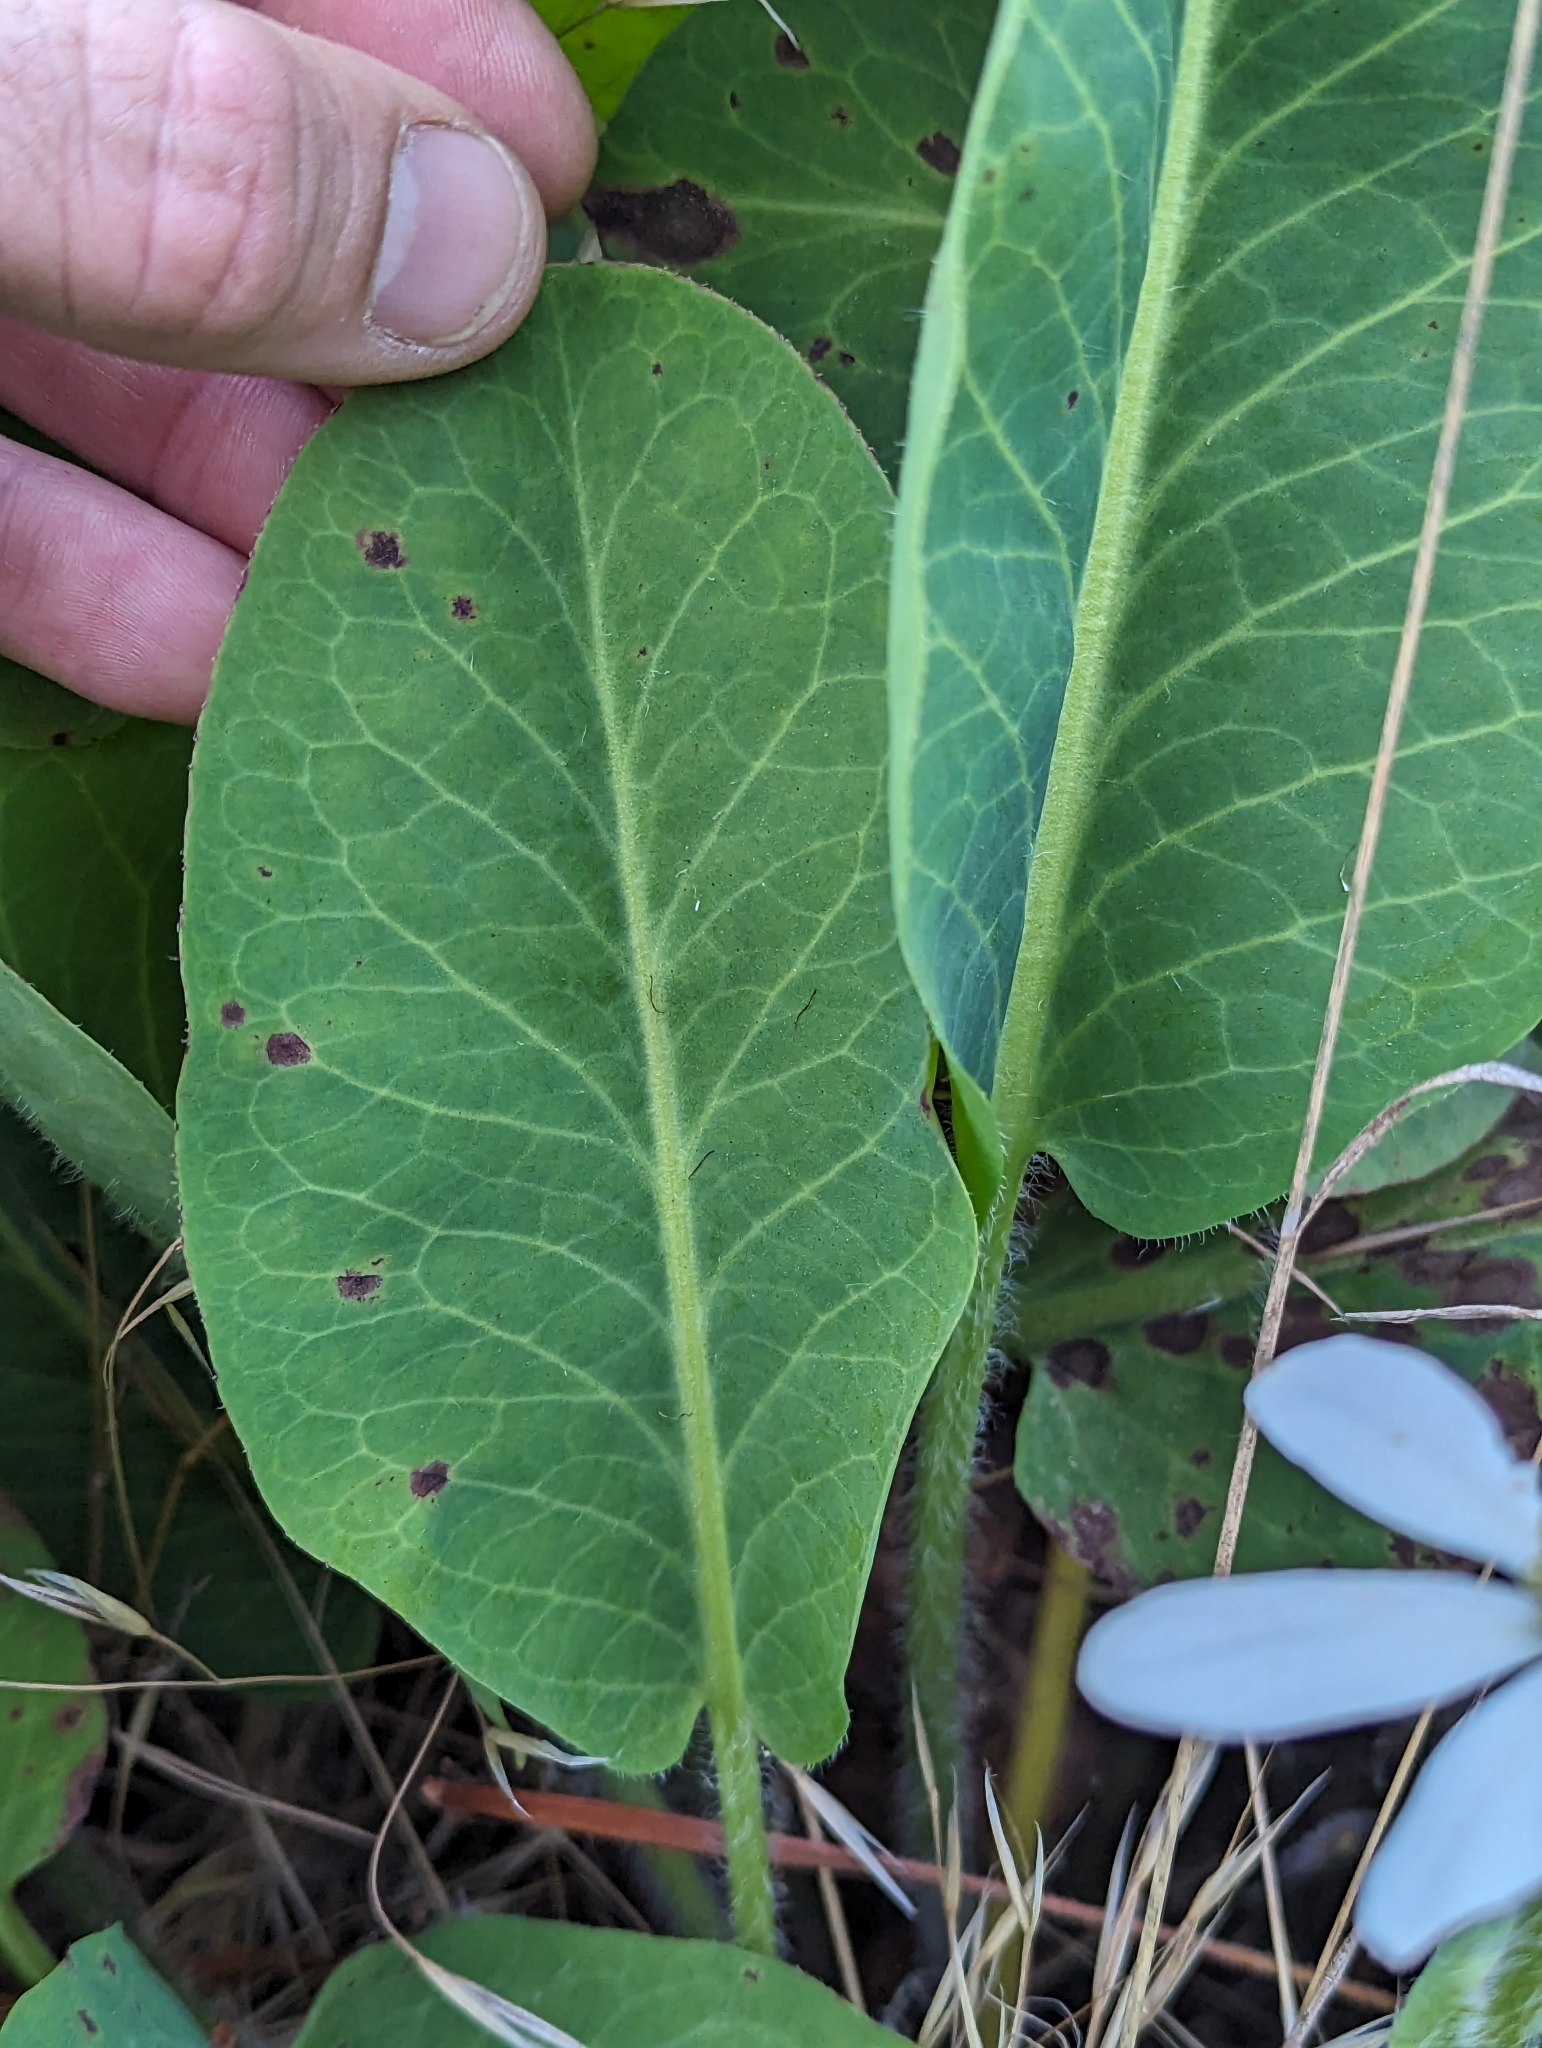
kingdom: Plantae
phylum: Tracheophyta
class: Magnoliopsida
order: Piperales
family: Saururaceae
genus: Anemopsis
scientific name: Anemopsis californica
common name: Apache-beads
